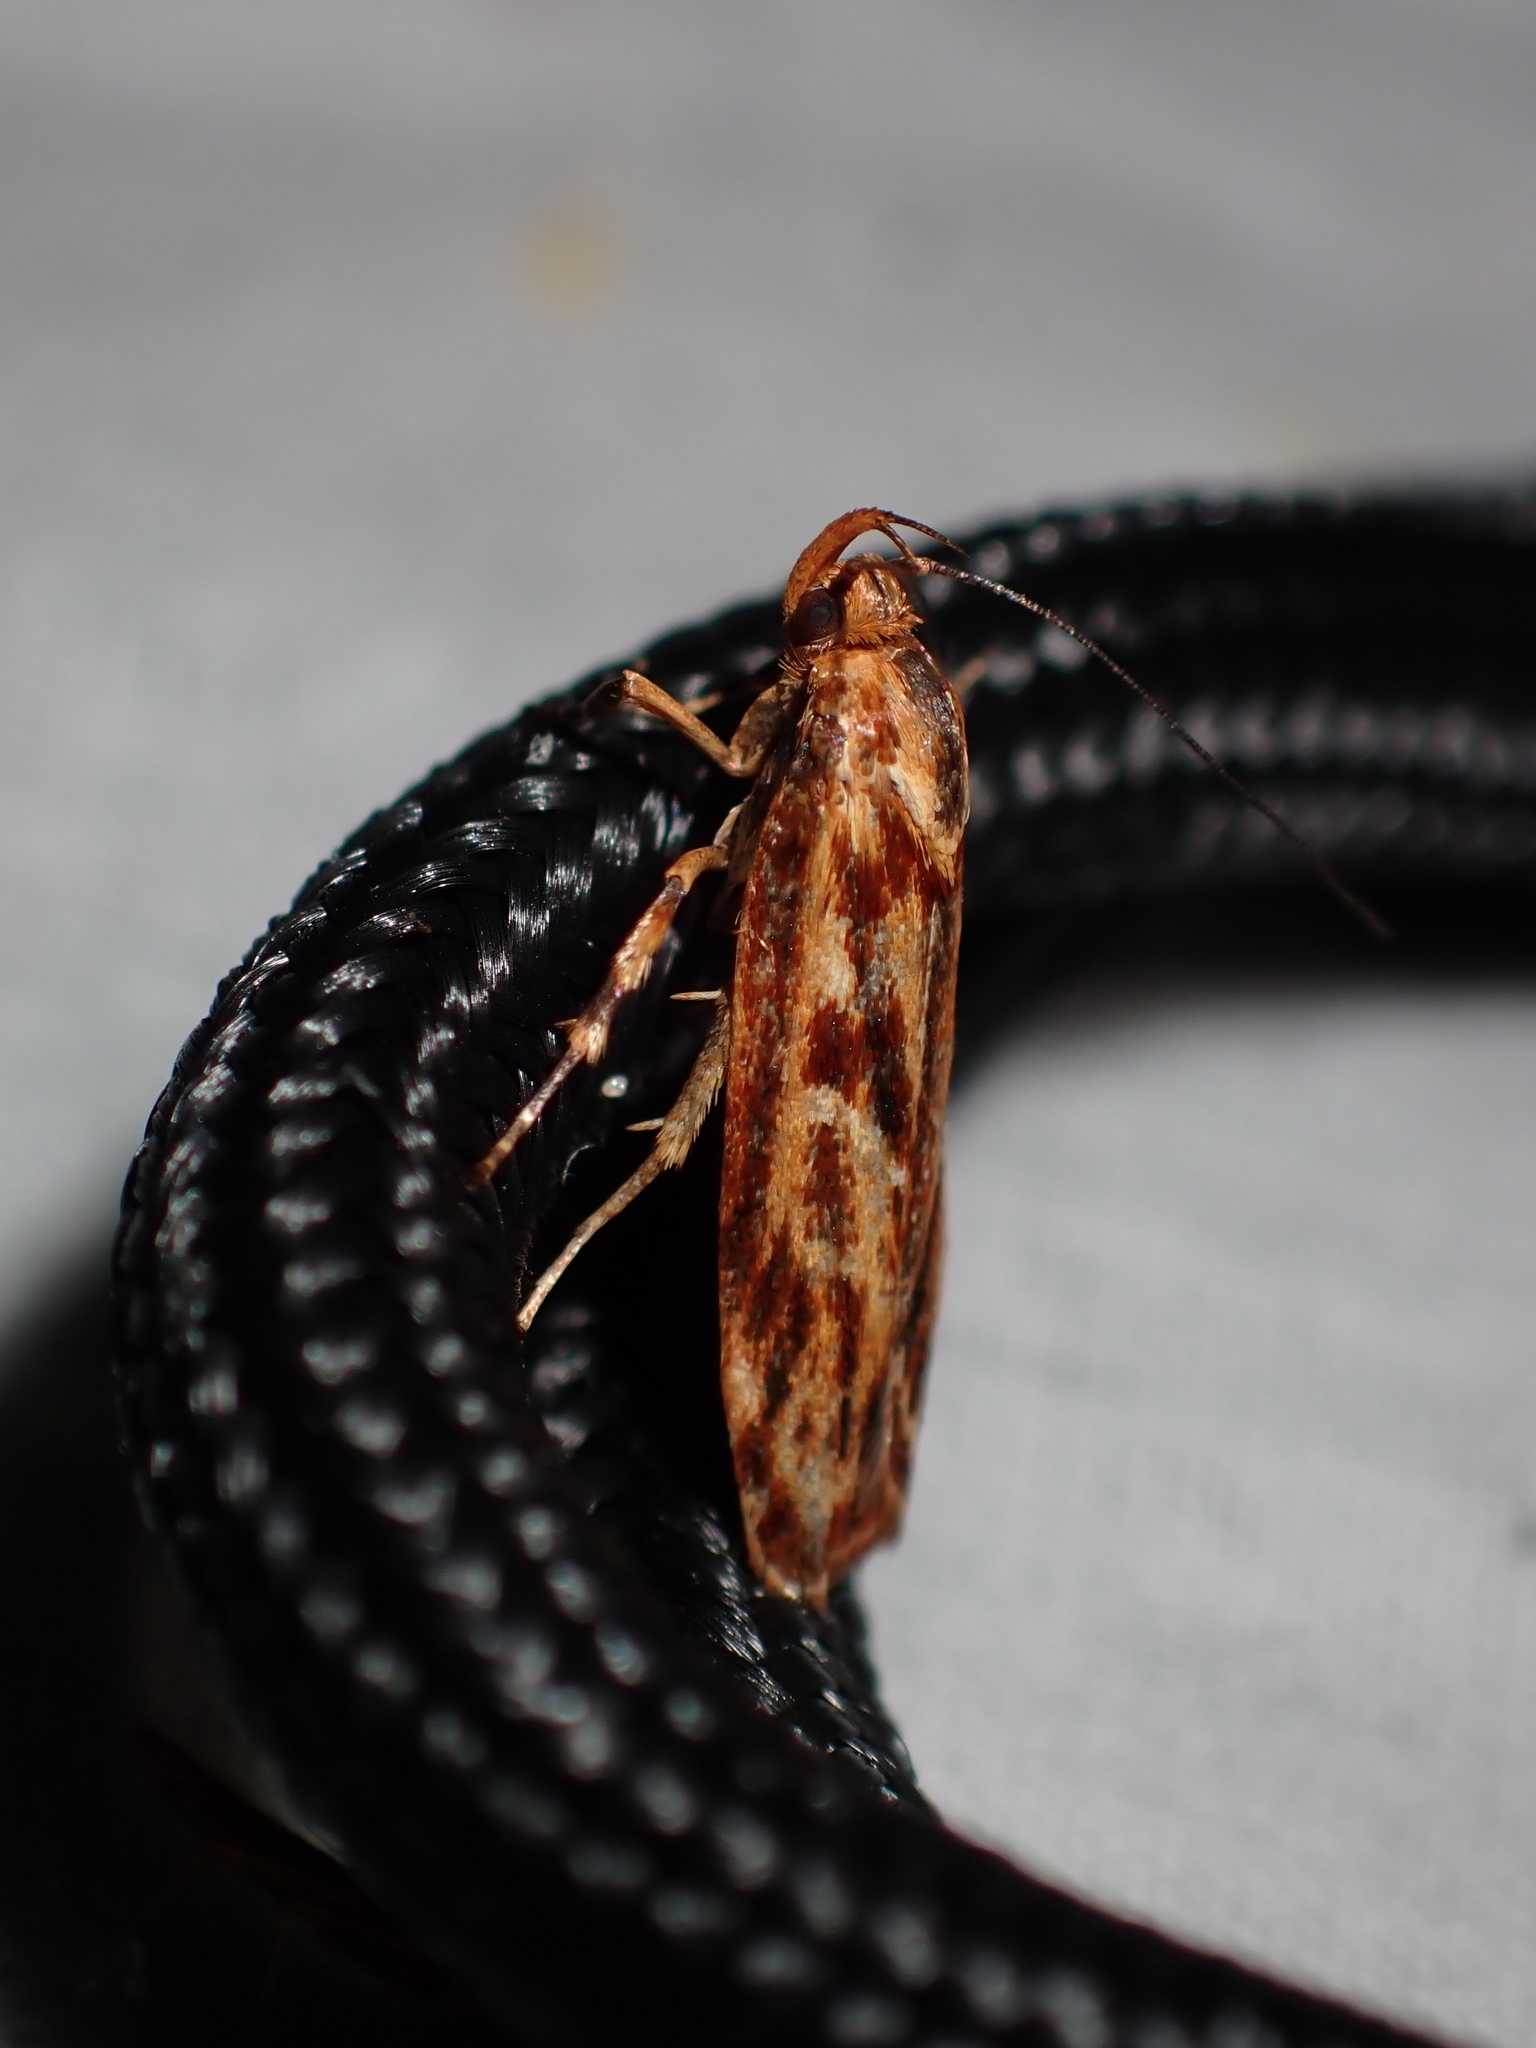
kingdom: Animalia
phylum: Arthropoda
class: Insecta
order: Lepidoptera
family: Oecophoridae
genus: Hierodoris
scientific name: Hierodoris tygris
